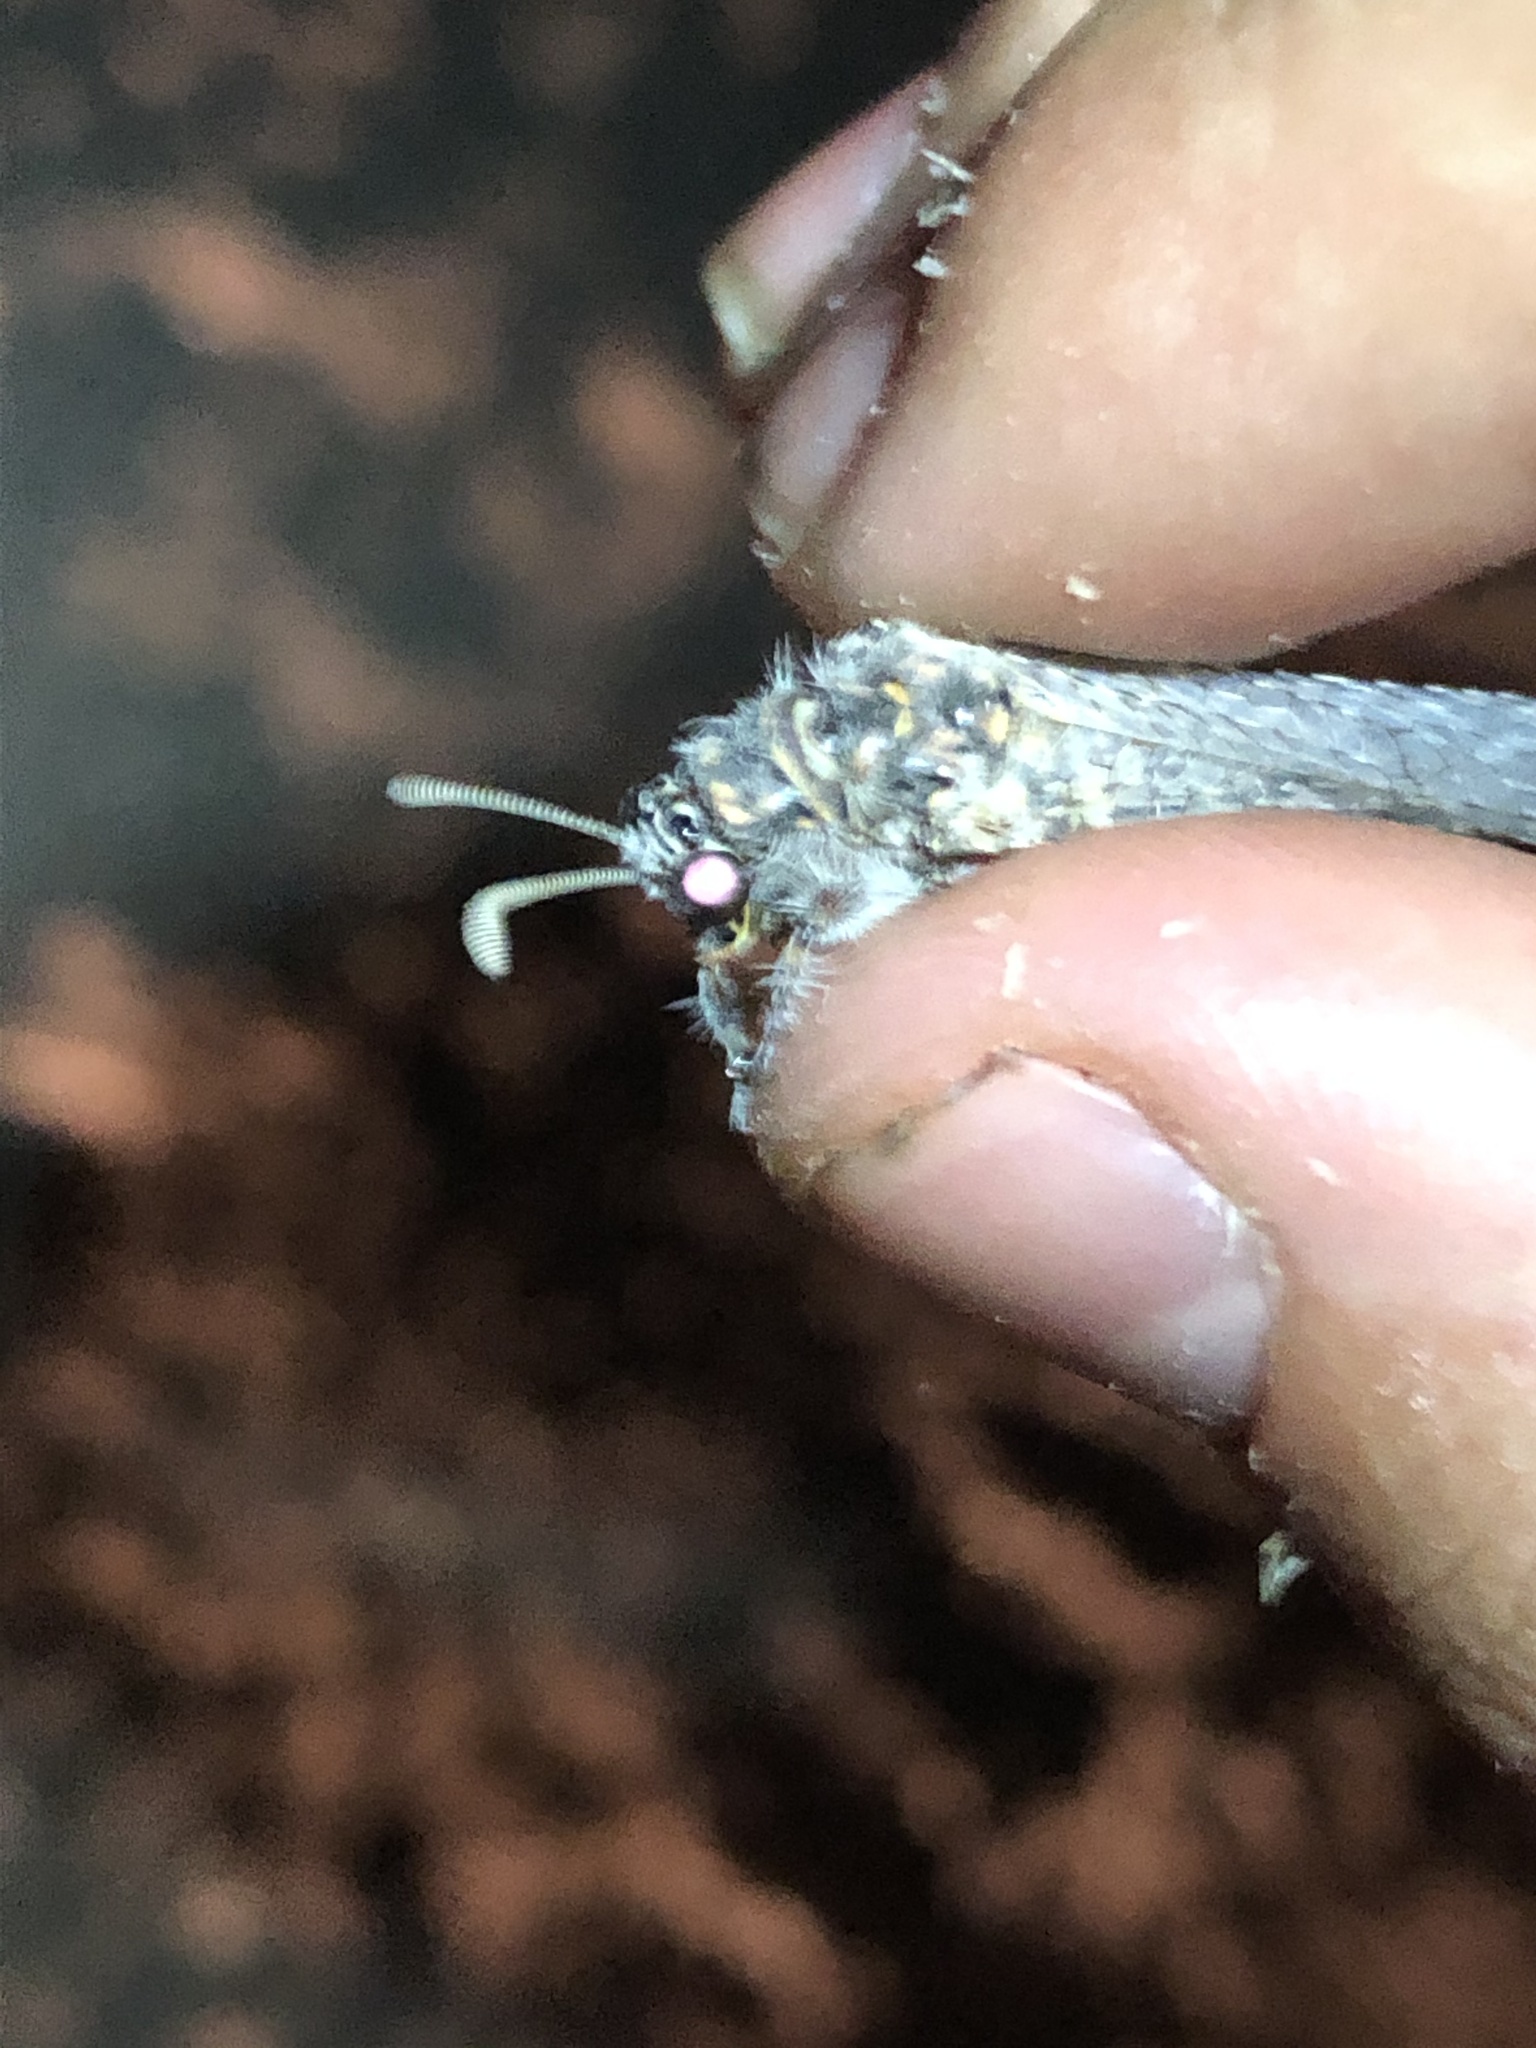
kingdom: Animalia
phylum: Arthropoda
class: Insecta
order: Neuroptera
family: Myrmeleontidae
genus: Paranthaclisis
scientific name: Paranthaclisis hageni
